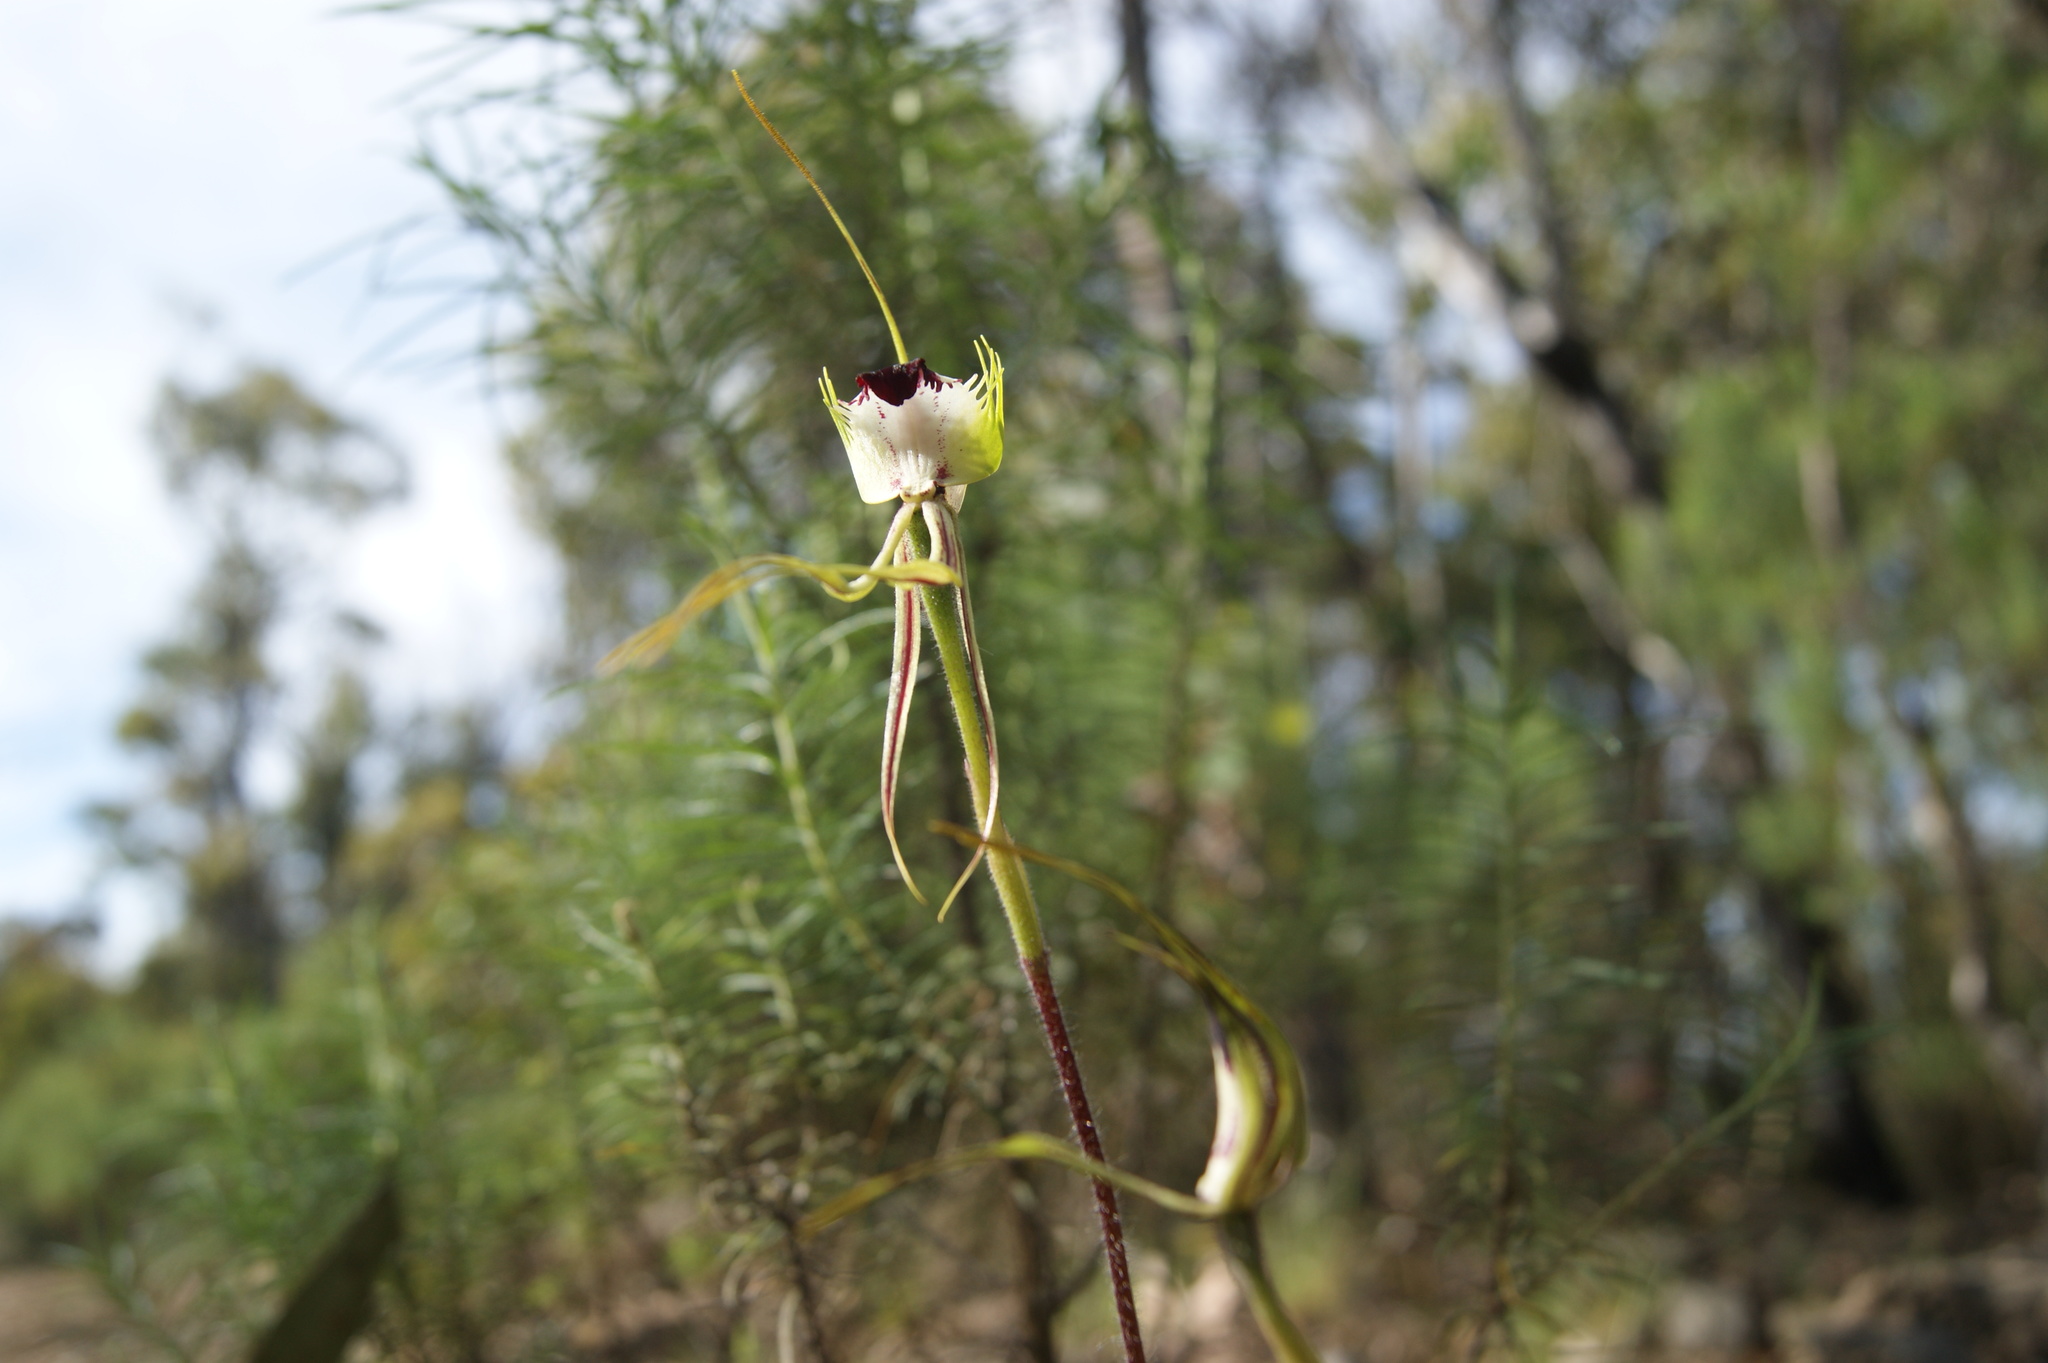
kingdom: Plantae
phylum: Tracheophyta
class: Liliopsida
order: Asparagales
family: Orchidaceae
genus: Caladenia
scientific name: Caladenia tentaculata
